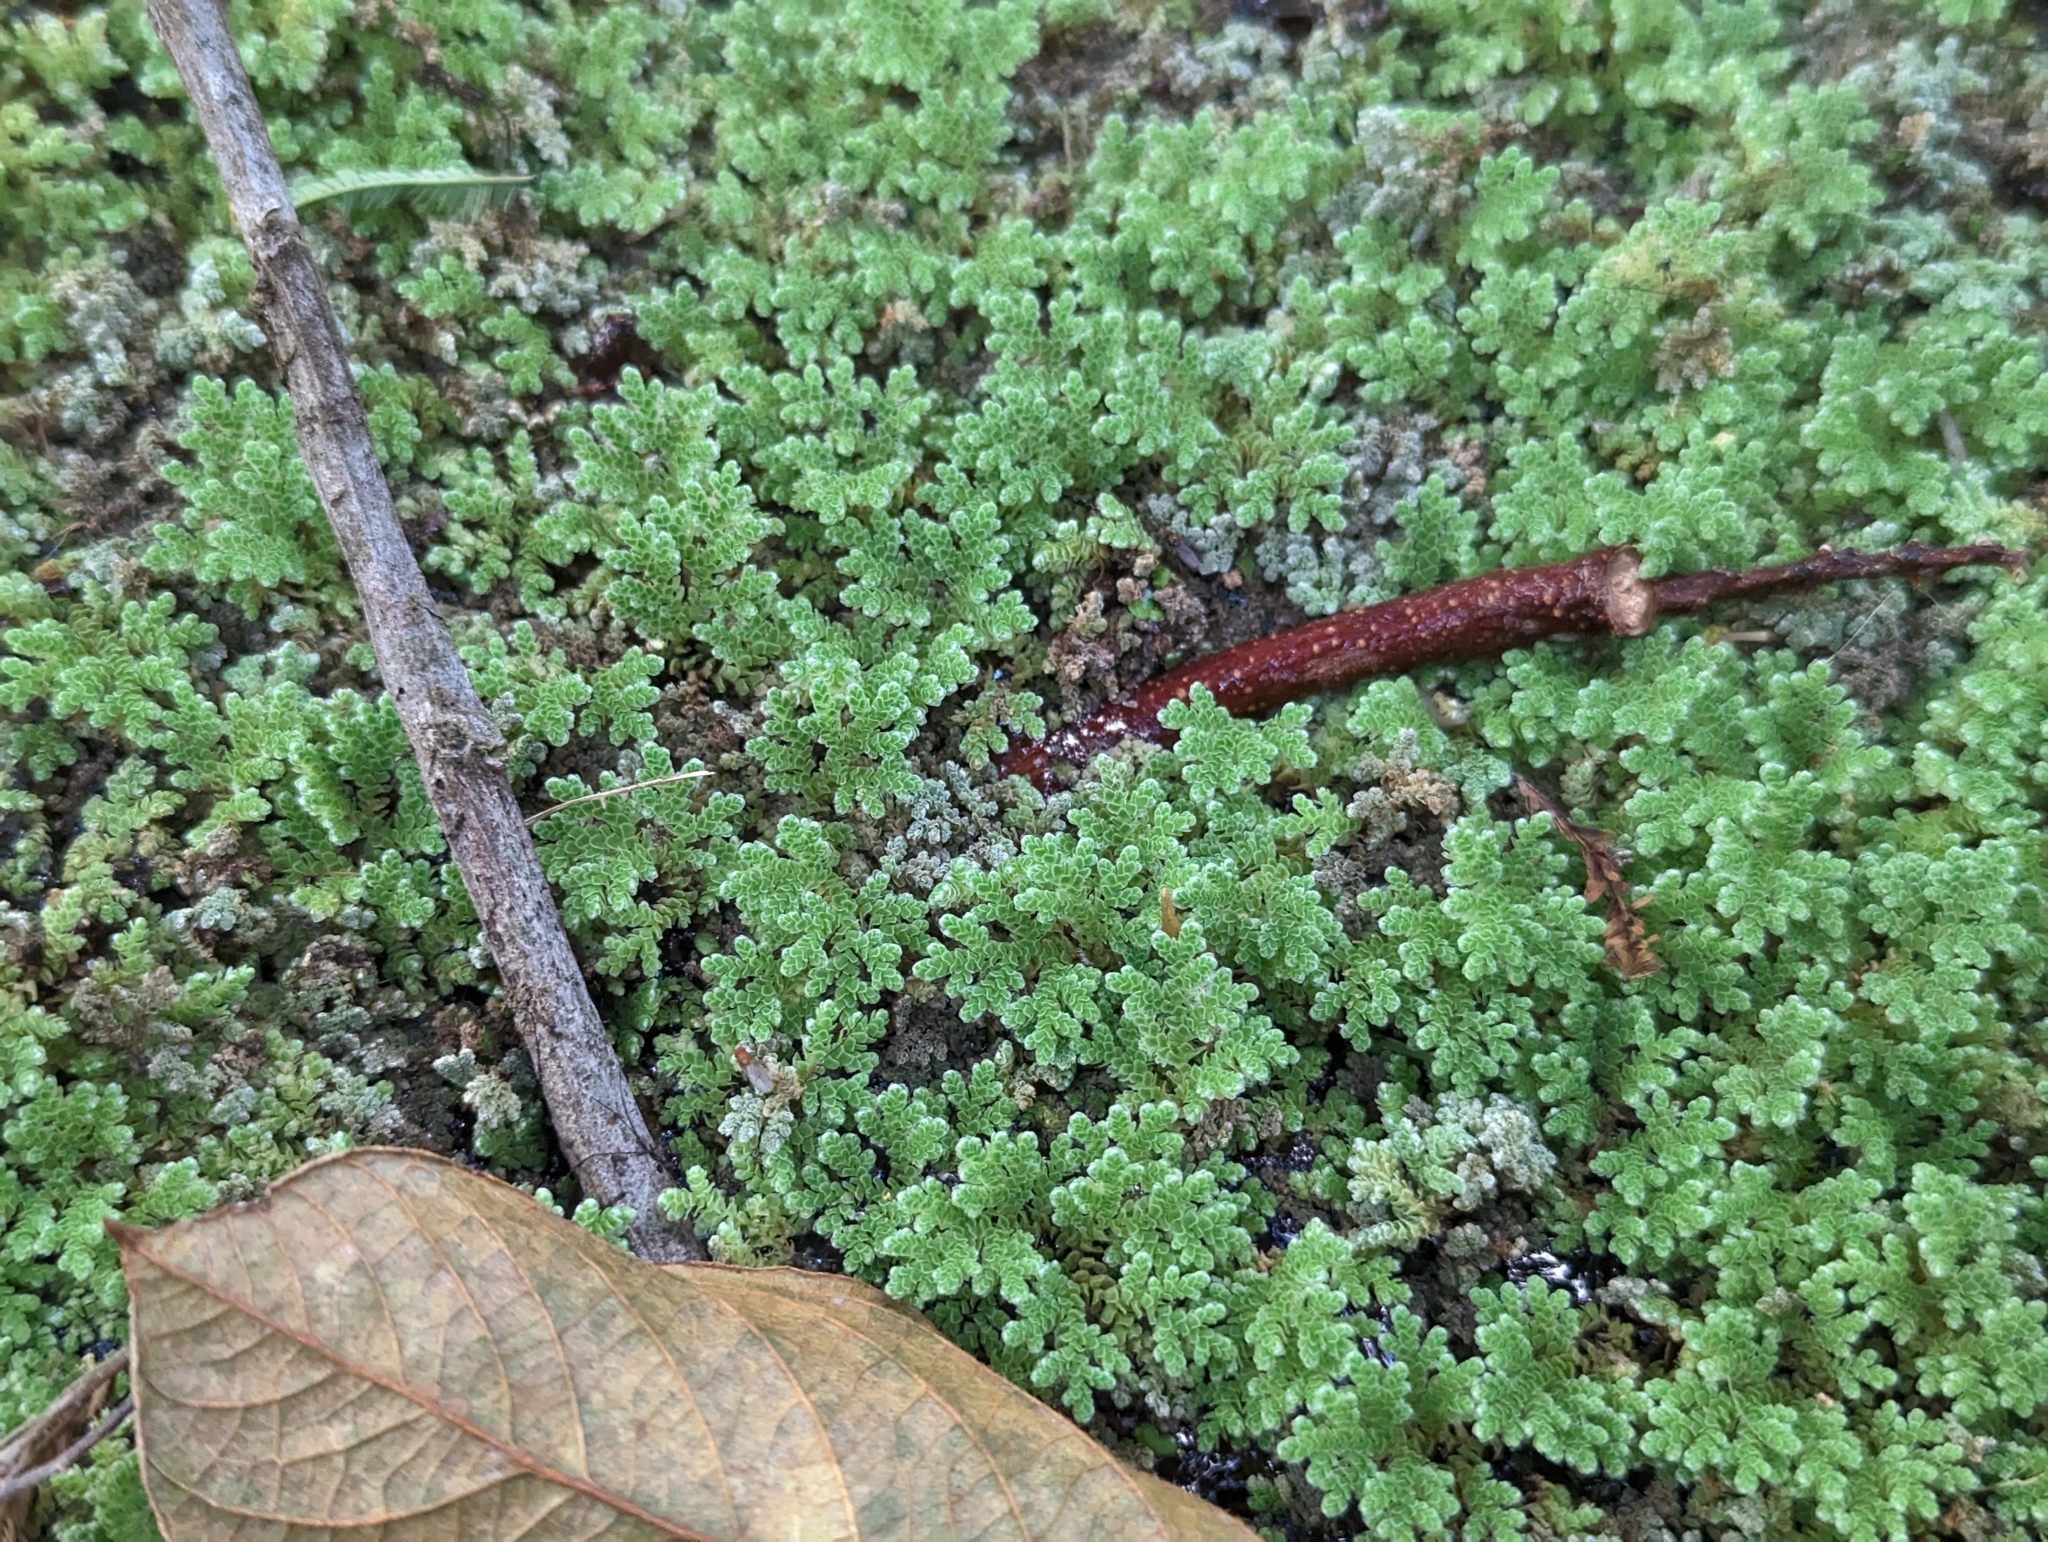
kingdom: Plantae
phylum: Tracheophyta
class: Polypodiopsida
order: Salviniales
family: Salviniaceae
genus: Azolla
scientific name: Azolla filiculoides
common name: Water fern
